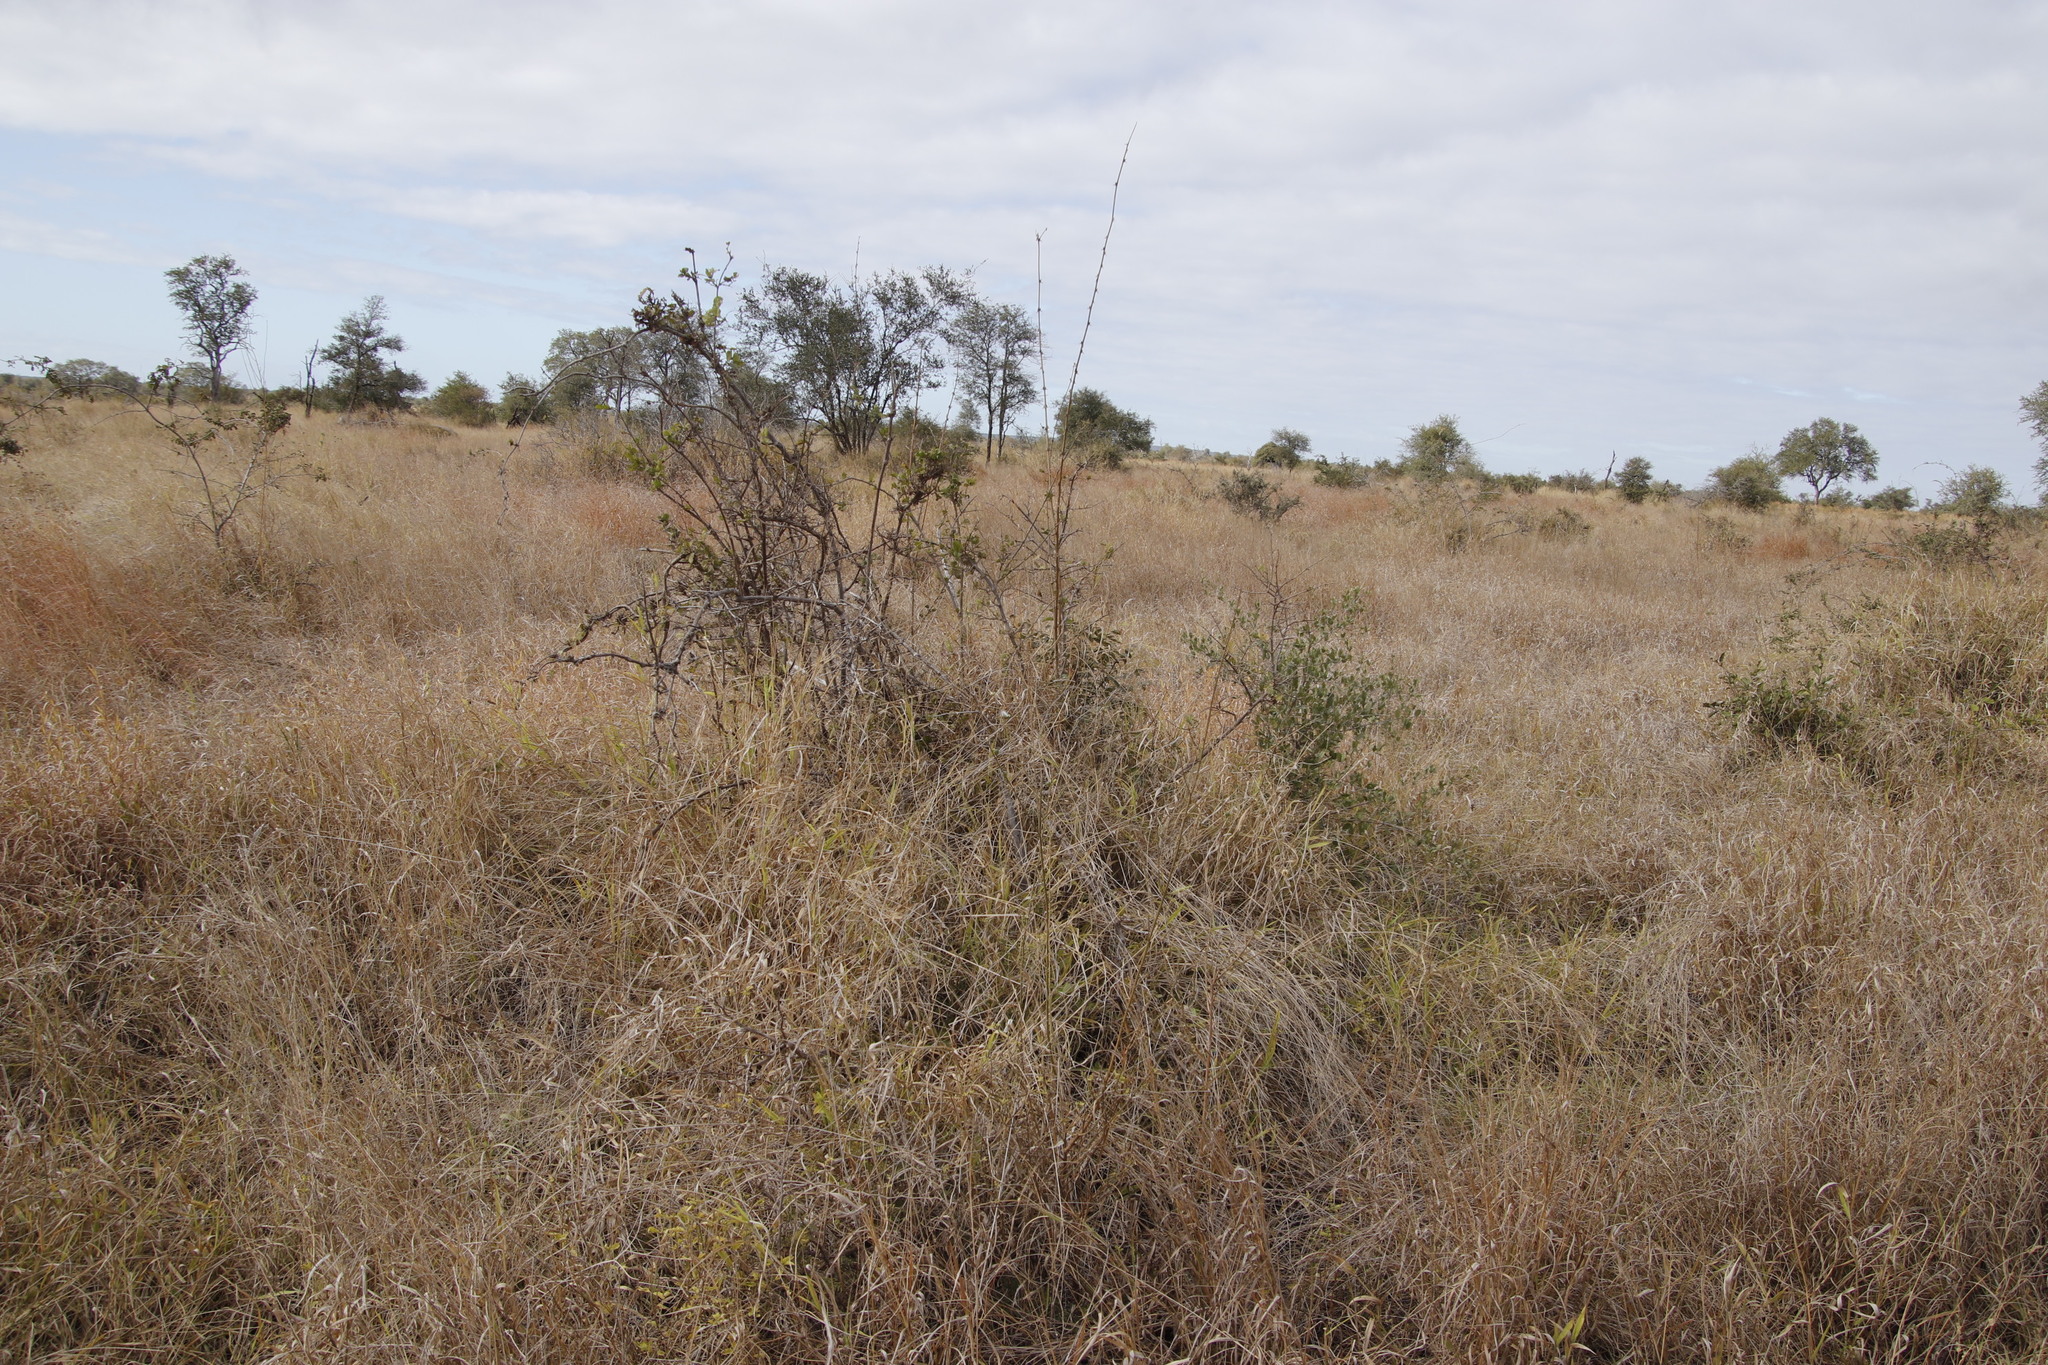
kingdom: Plantae
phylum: Tracheophyta
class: Magnoliopsida
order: Myrtales
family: Combretaceae
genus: Combretum
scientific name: Combretum microphyllum
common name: Burningbush
